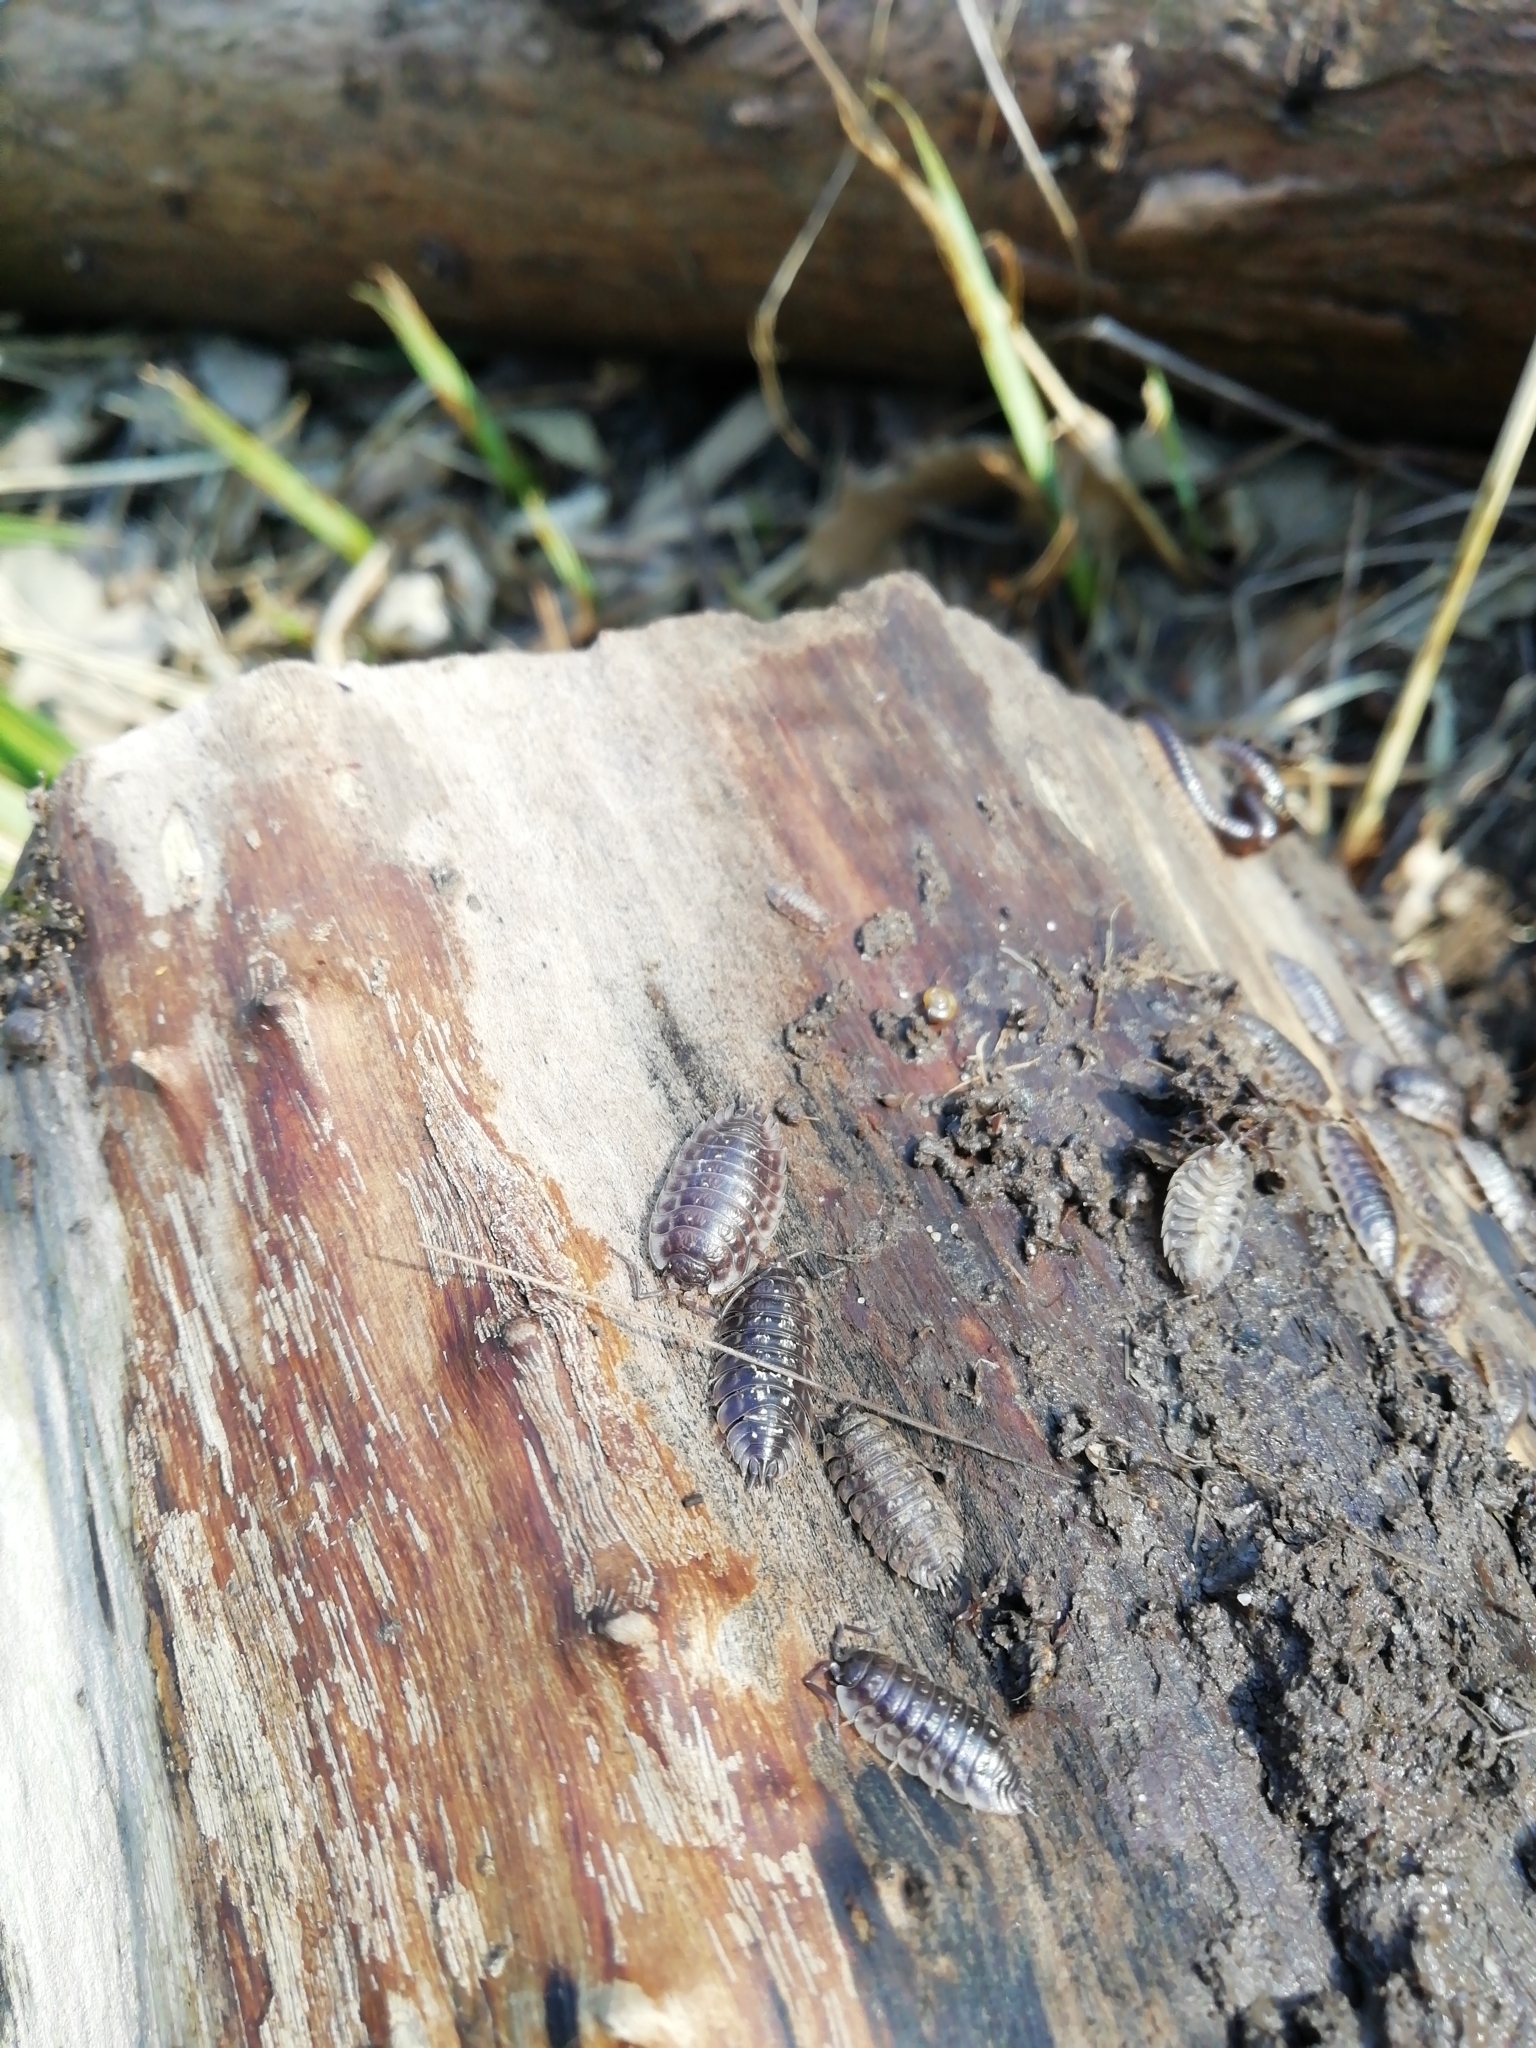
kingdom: Animalia
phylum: Arthropoda
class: Malacostraca
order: Isopoda
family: Oniscidae
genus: Oniscus
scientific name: Oniscus asellus
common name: Common shiny woodlouse
